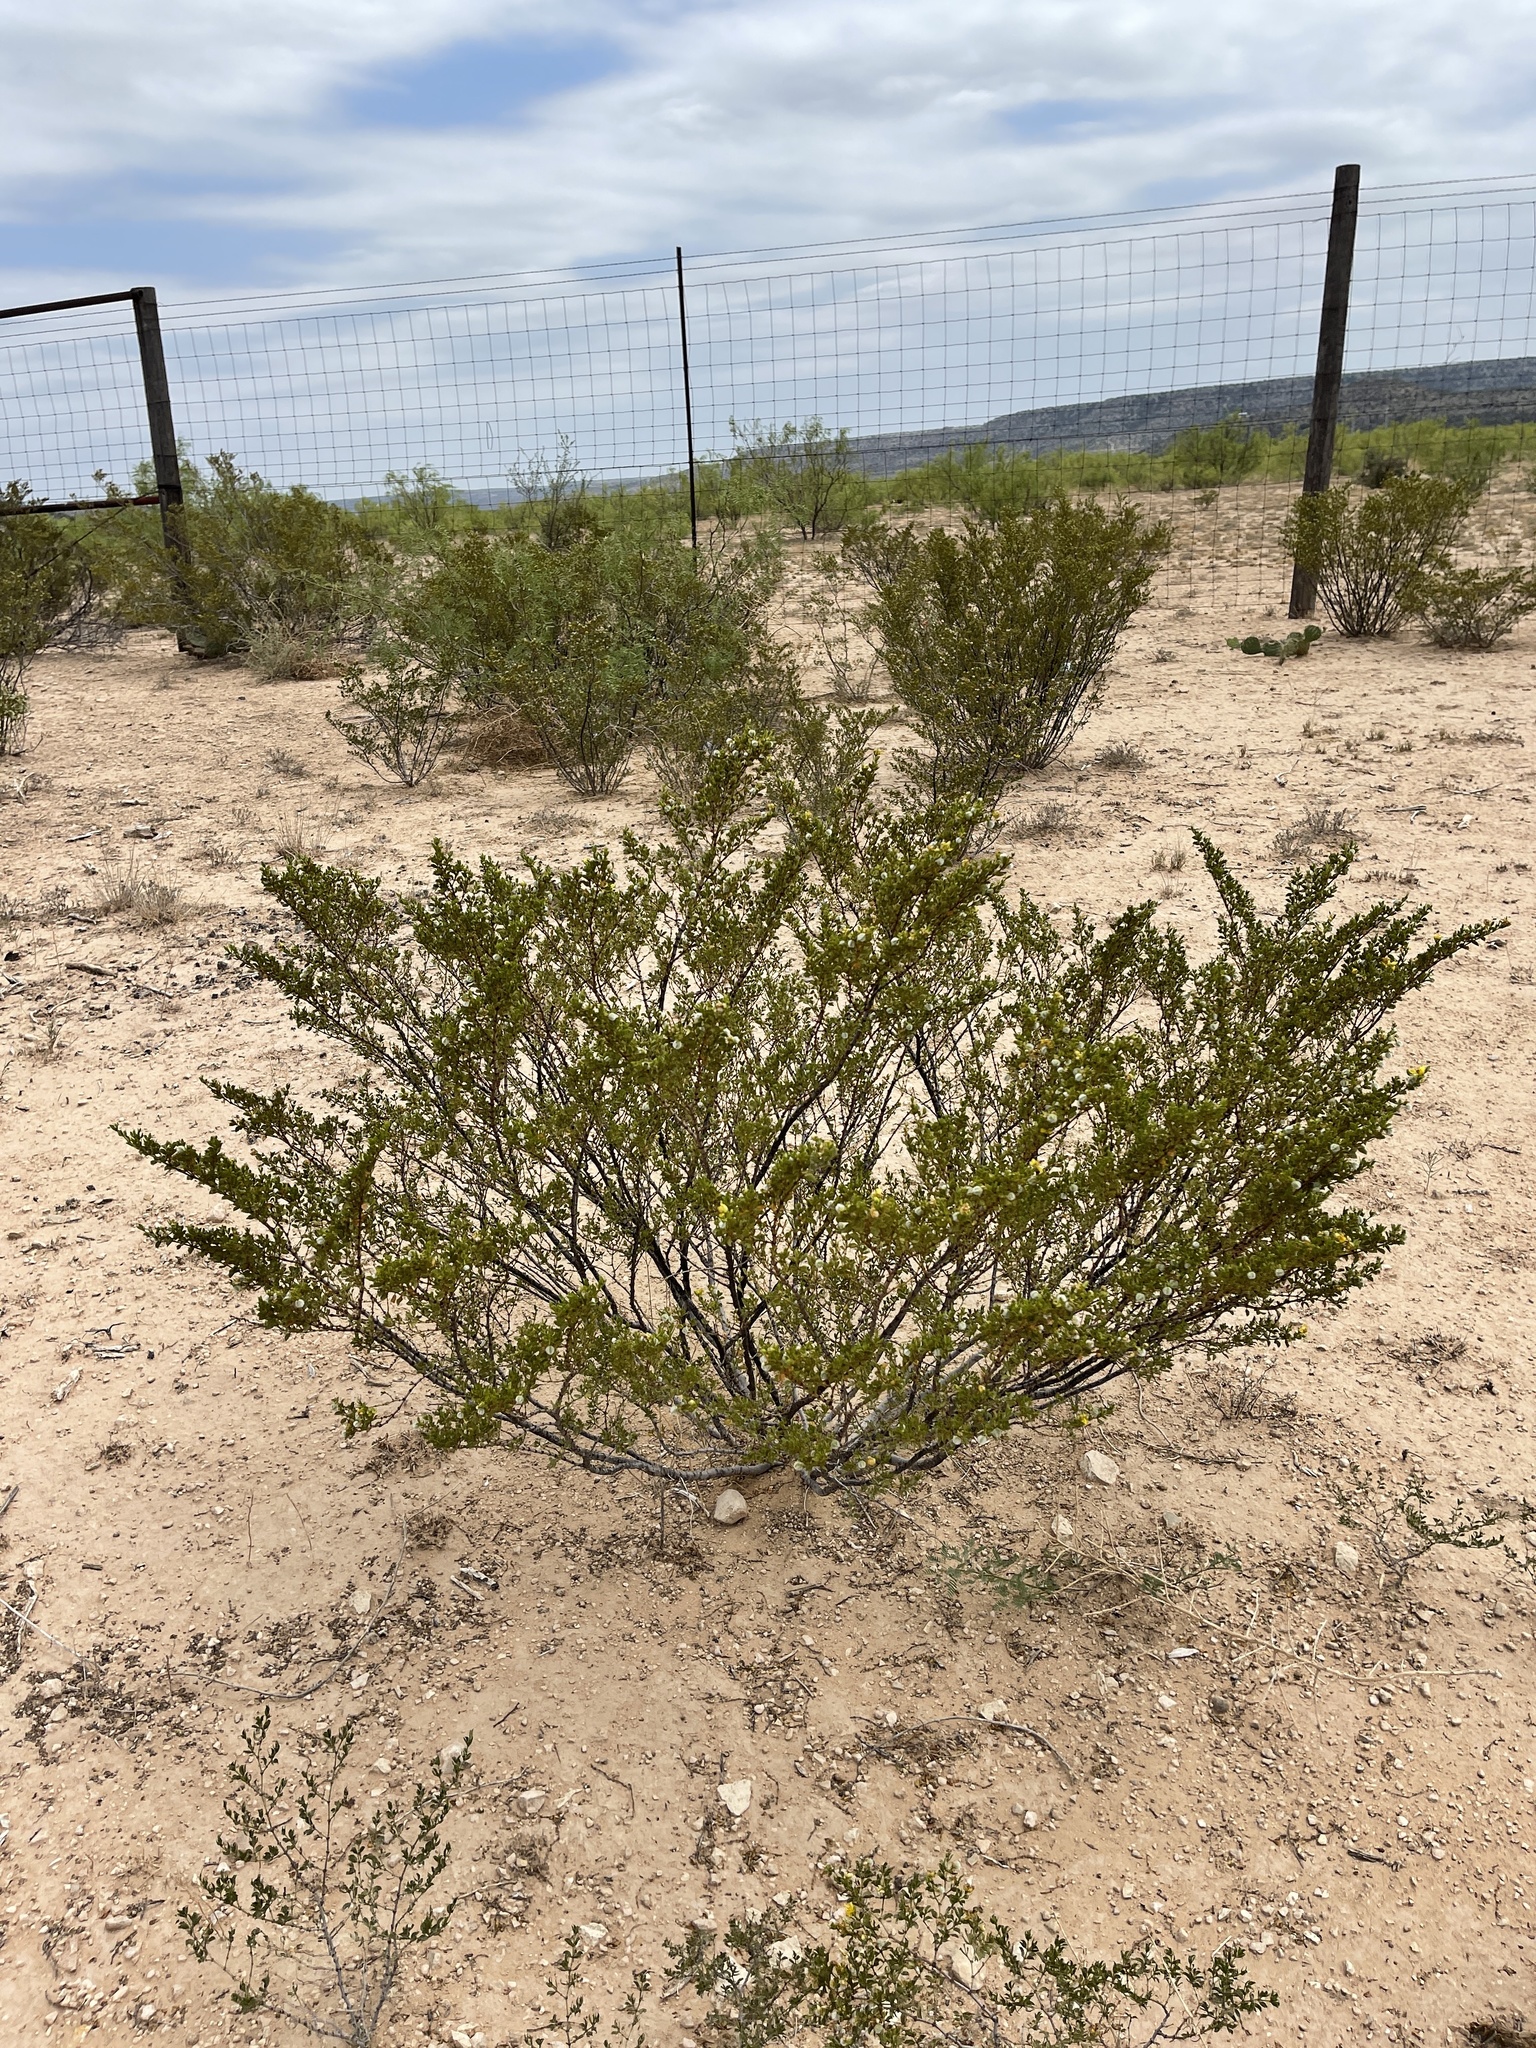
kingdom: Plantae
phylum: Tracheophyta
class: Magnoliopsida
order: Zygophyllales
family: Zygophyllaceae
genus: Larrea
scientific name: Larrea tridentata
